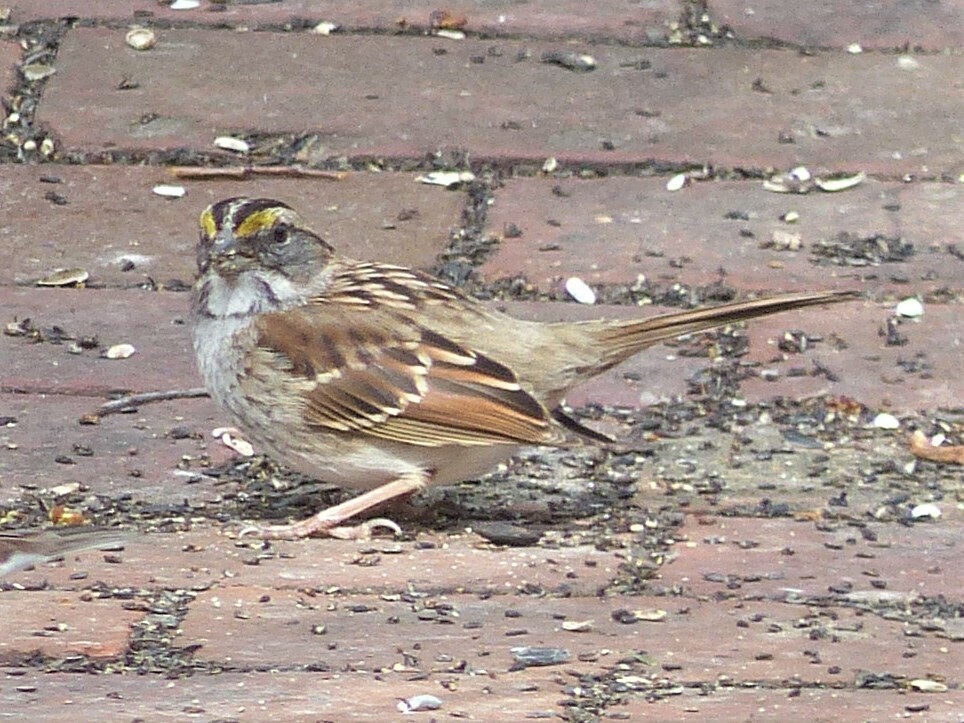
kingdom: Animalia
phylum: Chordata
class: Aves
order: Passeriformes
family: Passerellidae
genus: Zonotrichia
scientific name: Zonotrichia albicollis
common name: White-throated sparrow
